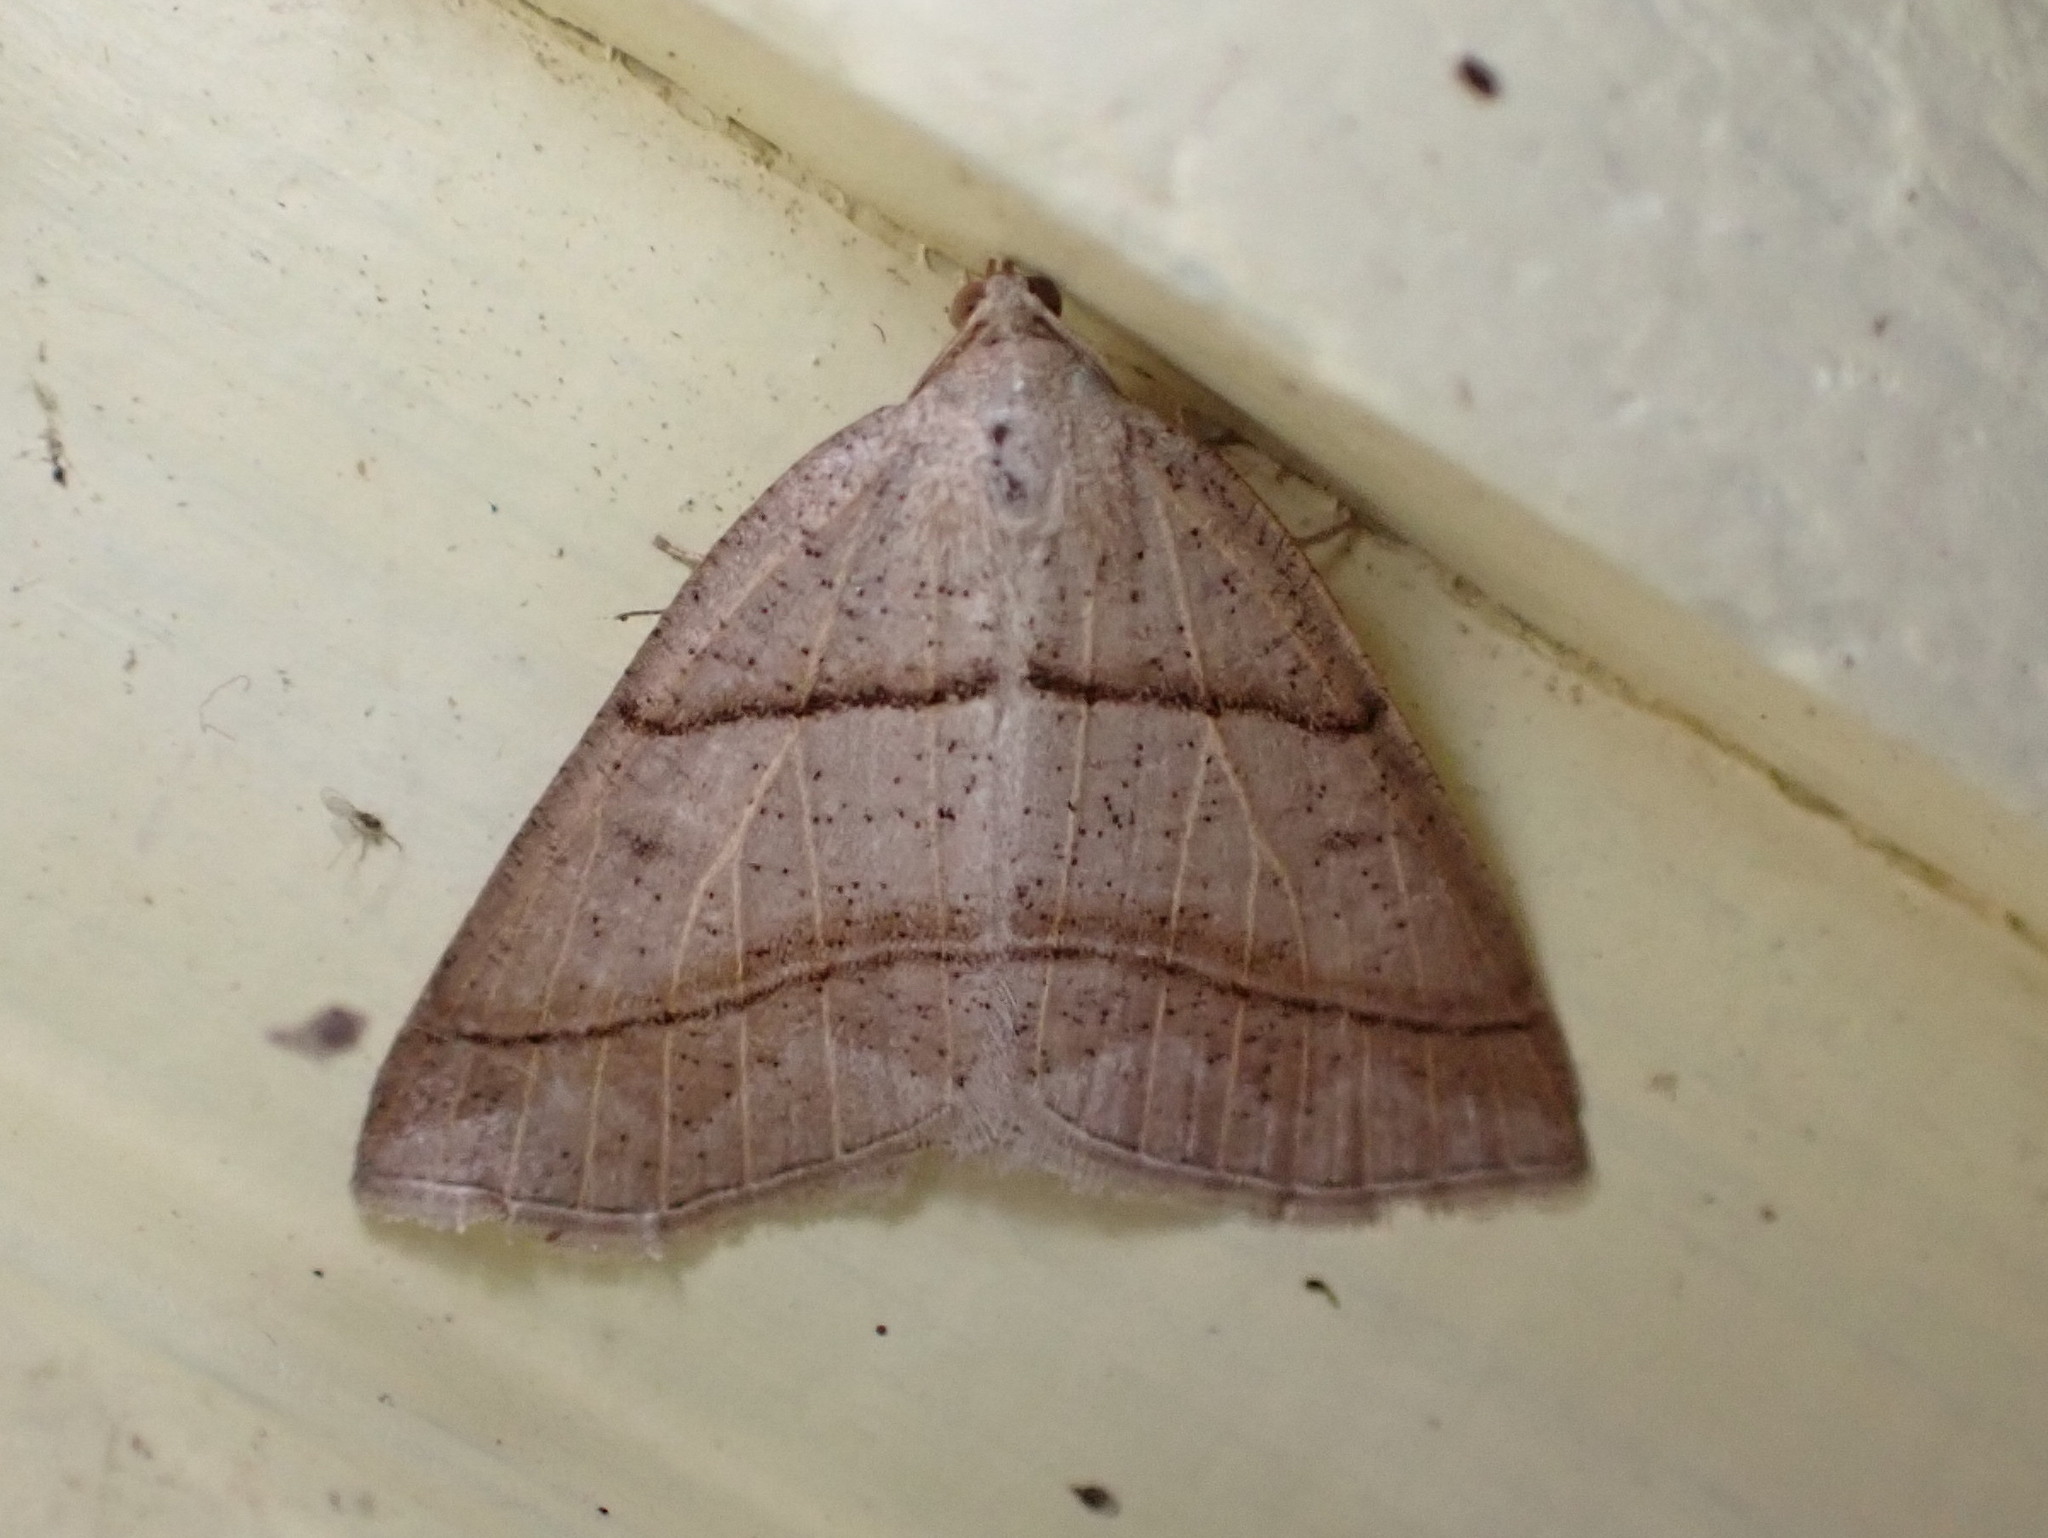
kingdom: Animalia
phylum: Arthropoda
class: Insecta
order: Lepidoptera
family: Pterophoridae
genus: Pterophorus
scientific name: Pterophorus Petrophora subaequaria
